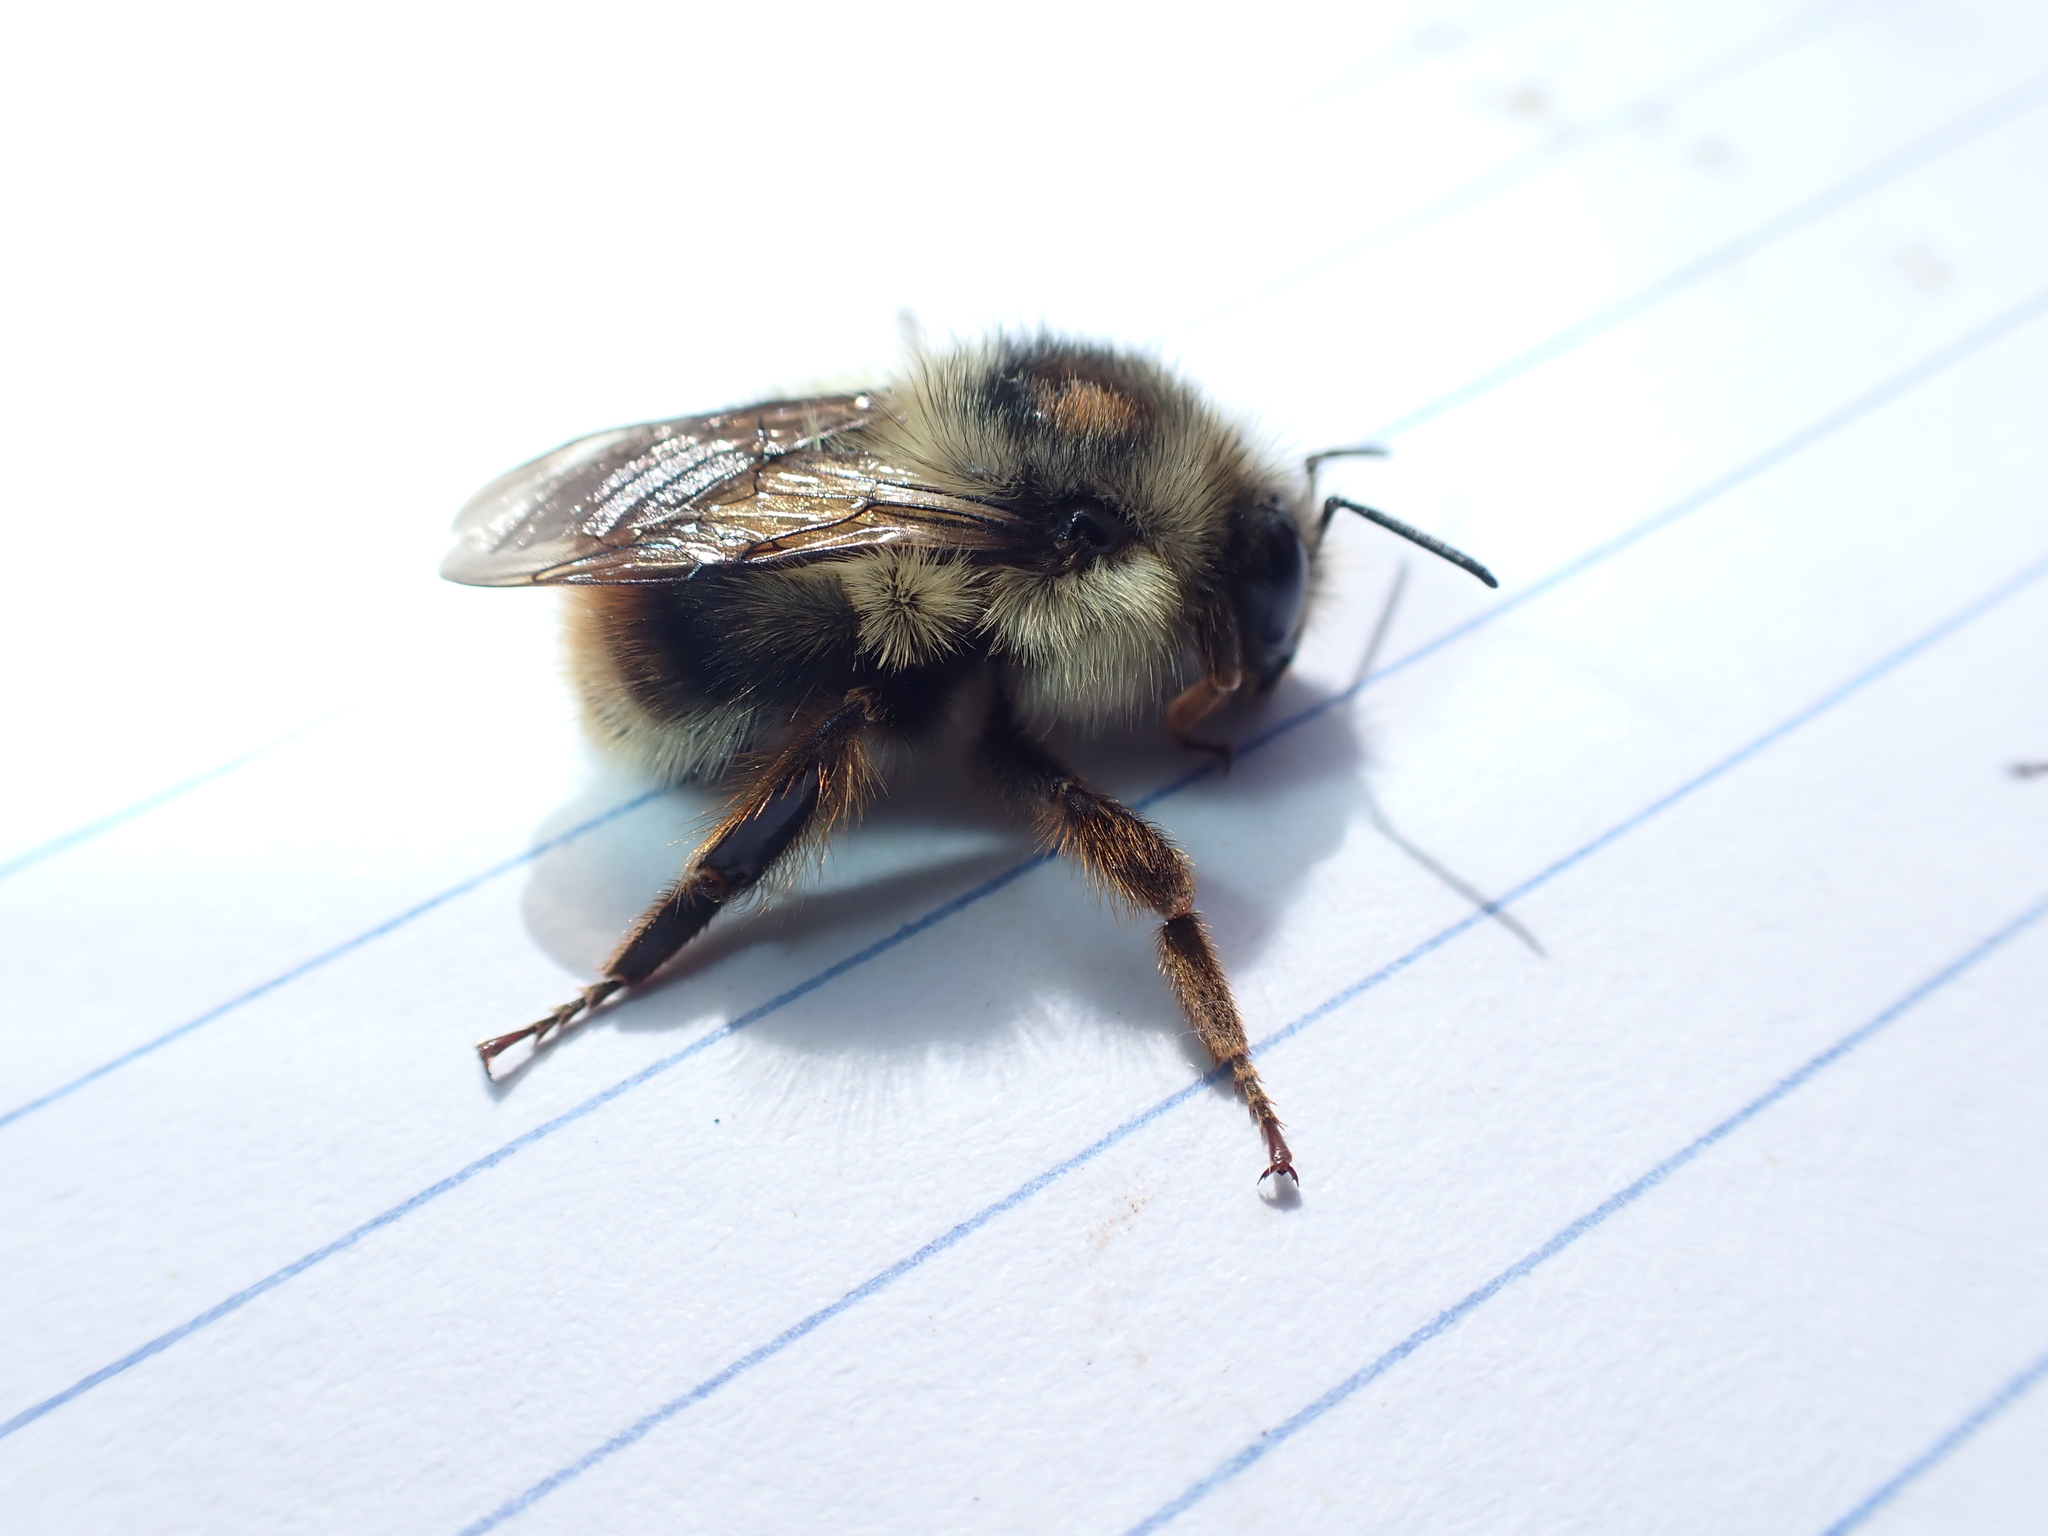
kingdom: Animalia
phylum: Arthropoda
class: Insecta
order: Hymenoptera
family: Apidae
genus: Bombus
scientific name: Bombus mixtus
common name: Fuzzy-horned bumble bee
